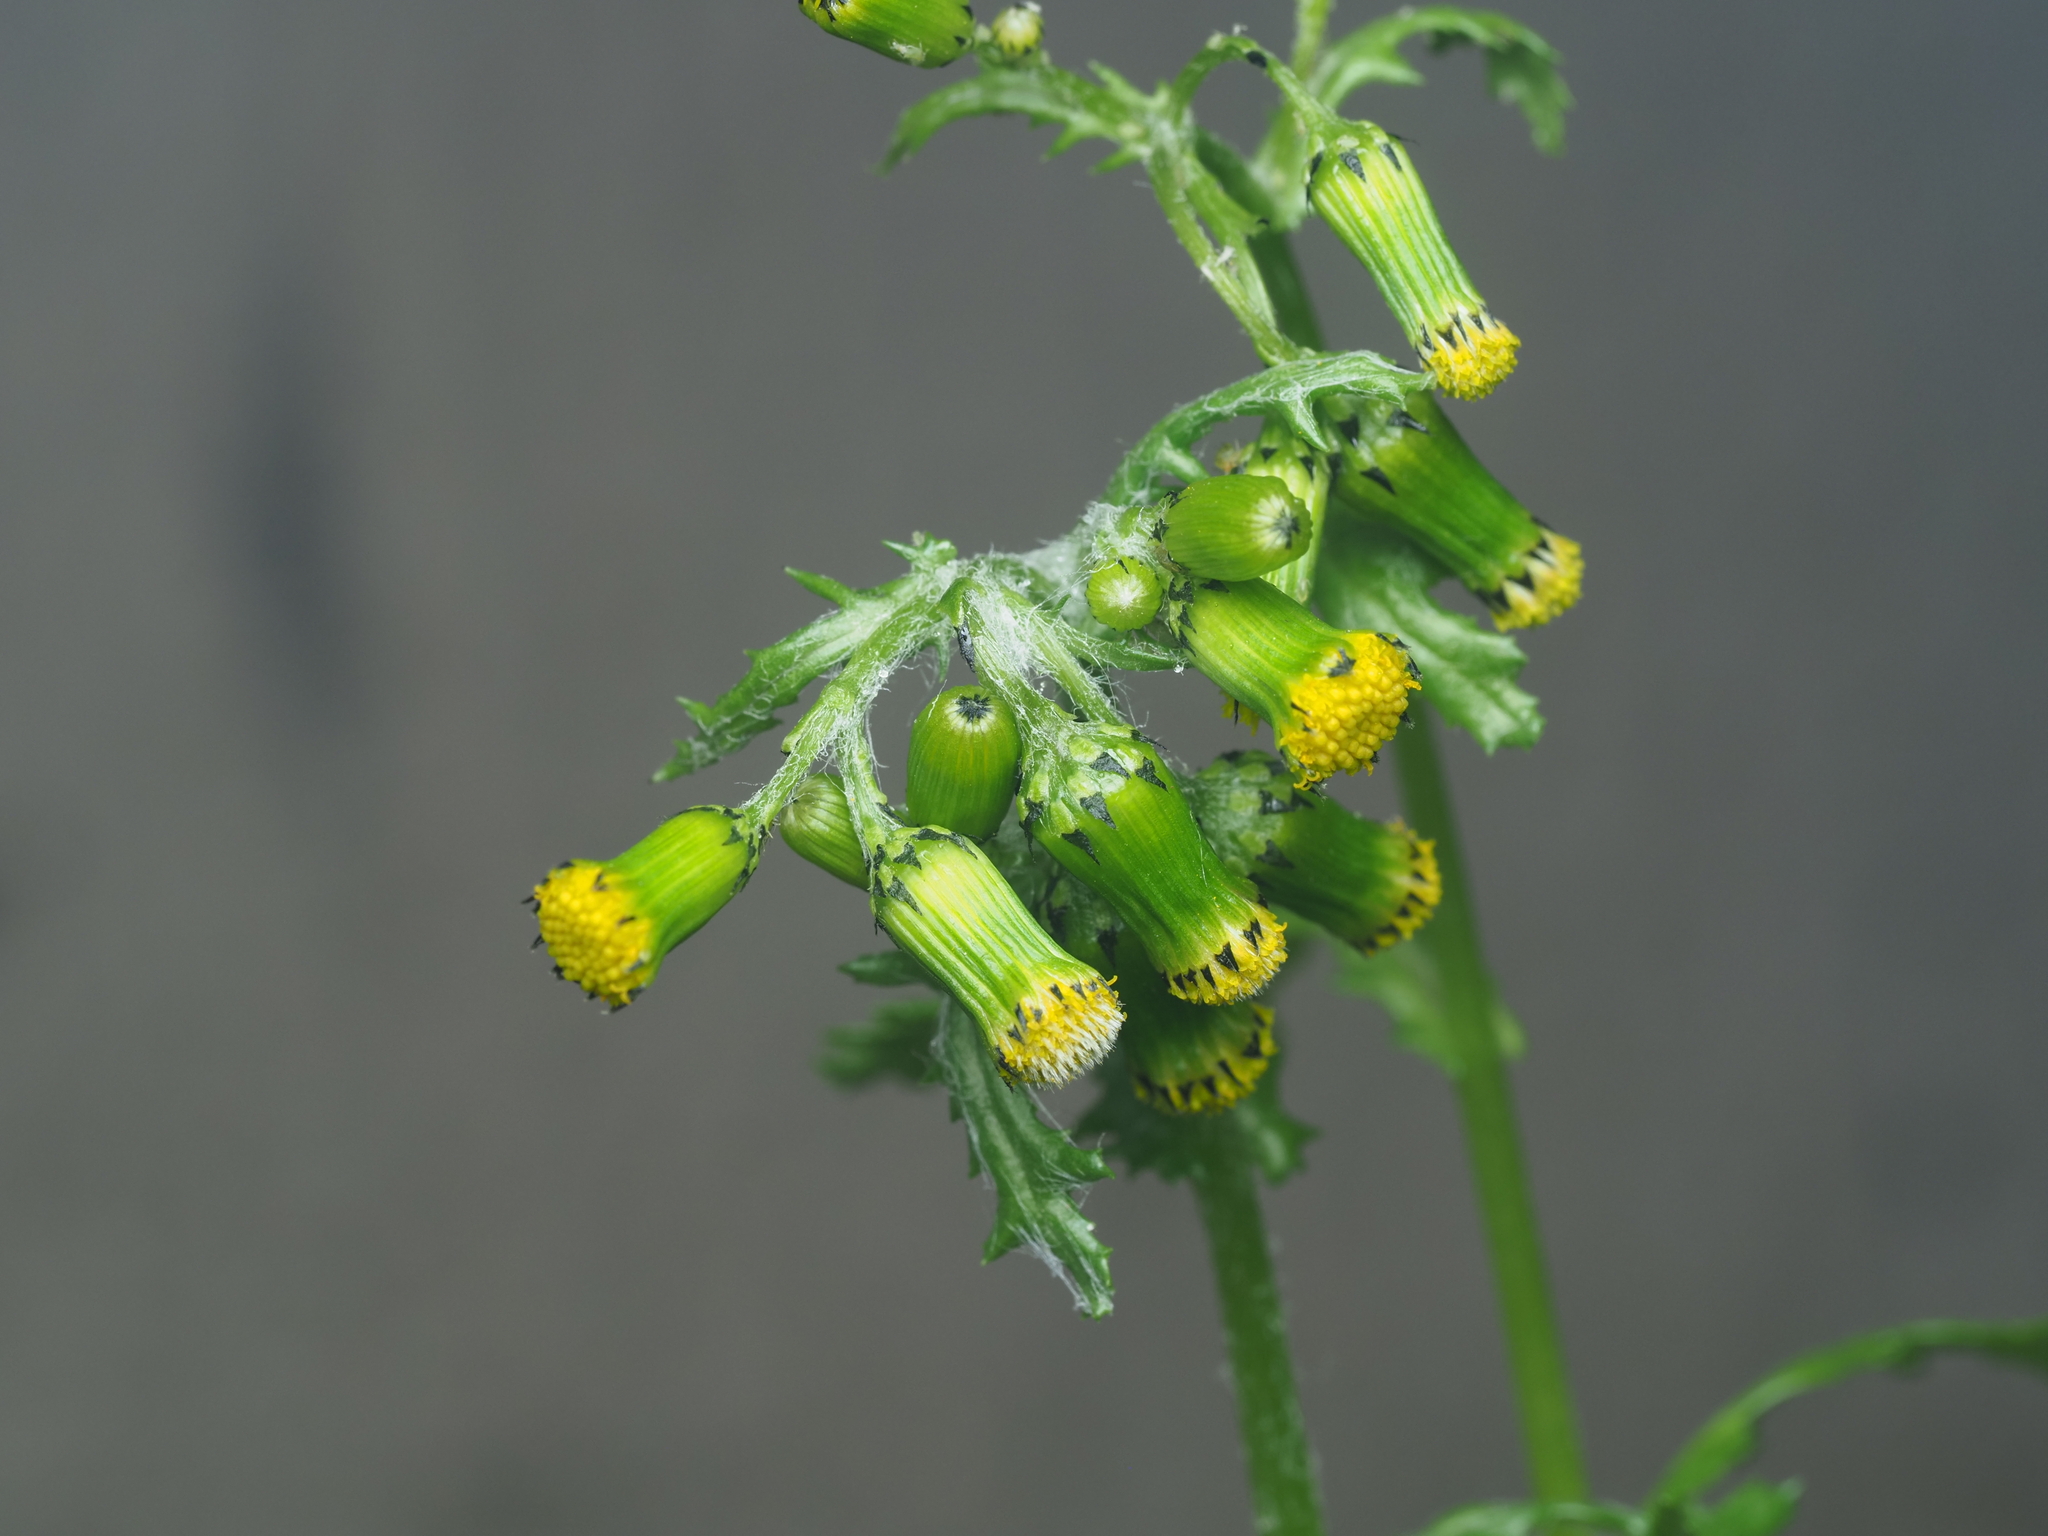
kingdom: Plantae
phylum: Tracheophyta
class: Magnoliopsida
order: Asterales
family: Asteraceae
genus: Senecio
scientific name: Senecio vulgaris
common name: Old-man-in-the-spring
